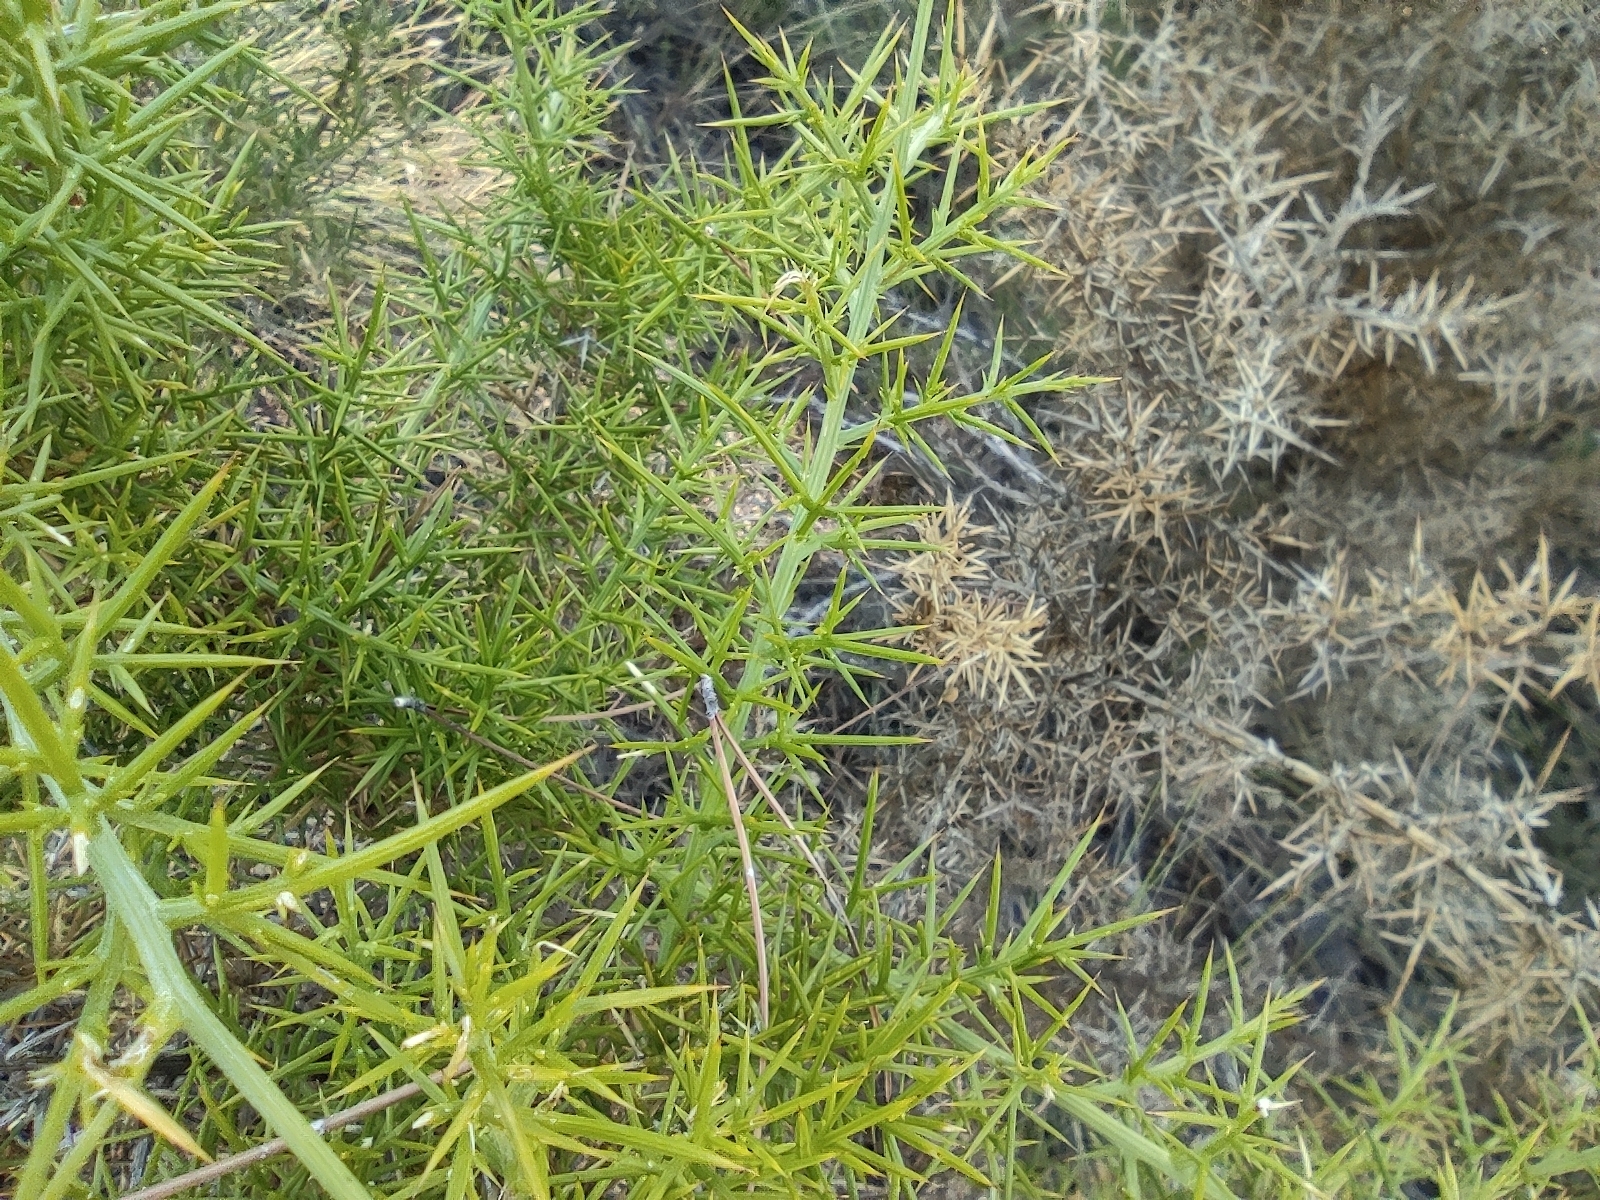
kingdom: Plantae
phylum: Tracheophyta
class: Magnoliopsida
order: Fabales
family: Fabaceae
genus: Ulex
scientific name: Ulex parviflorus
